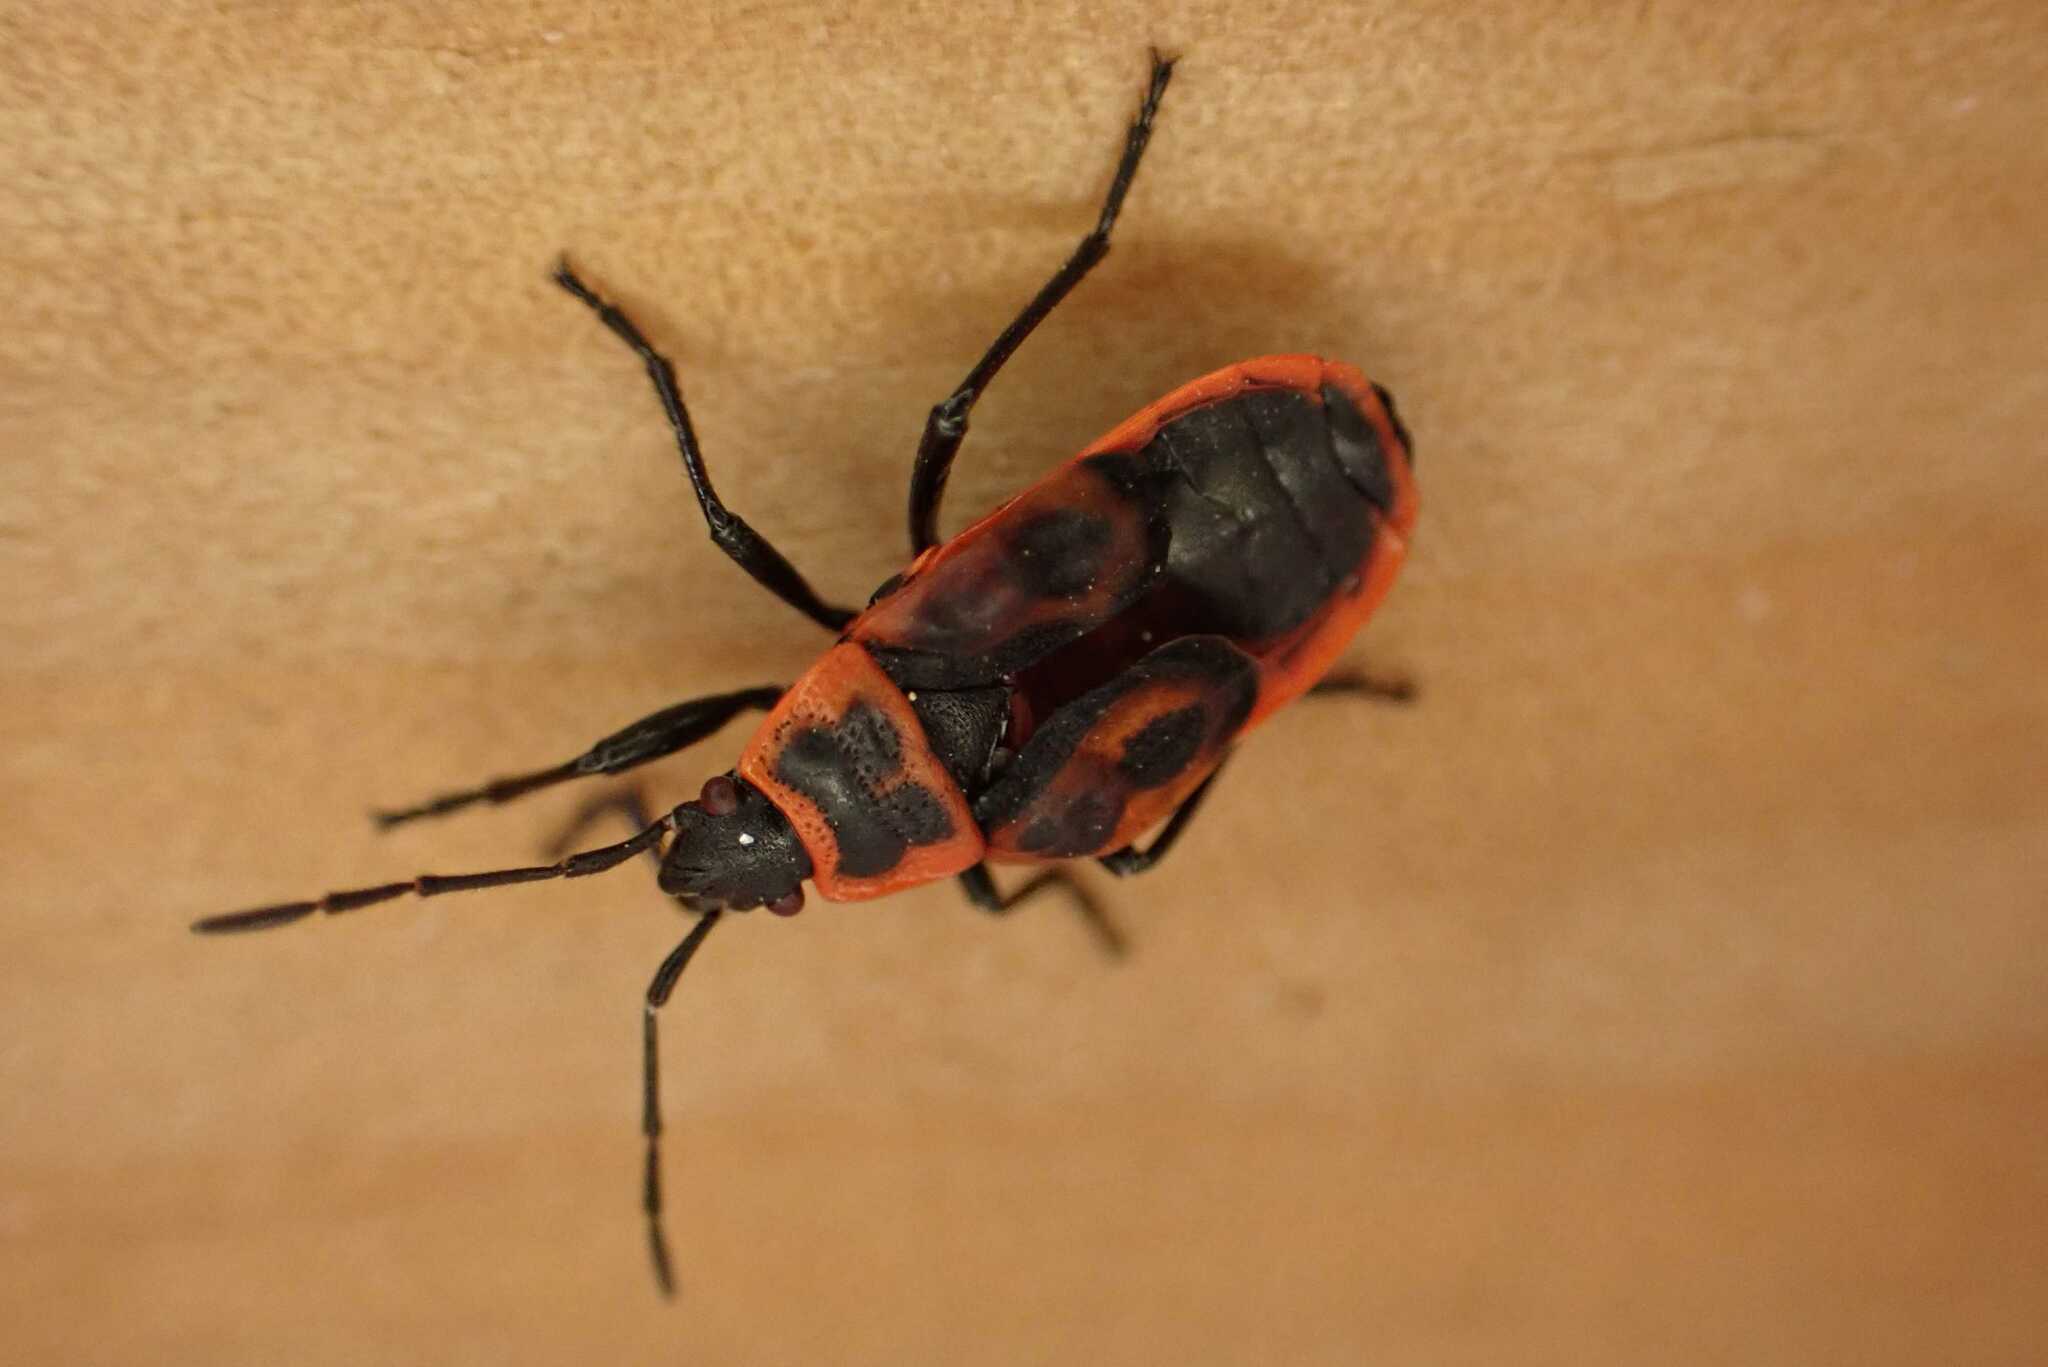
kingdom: Animalia
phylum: Arthropoda
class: Insecta
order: Hemiptera
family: Pyrrhocoridae
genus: Pyrrhocoris
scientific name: Pyrrhocoris apterus
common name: Firebug
